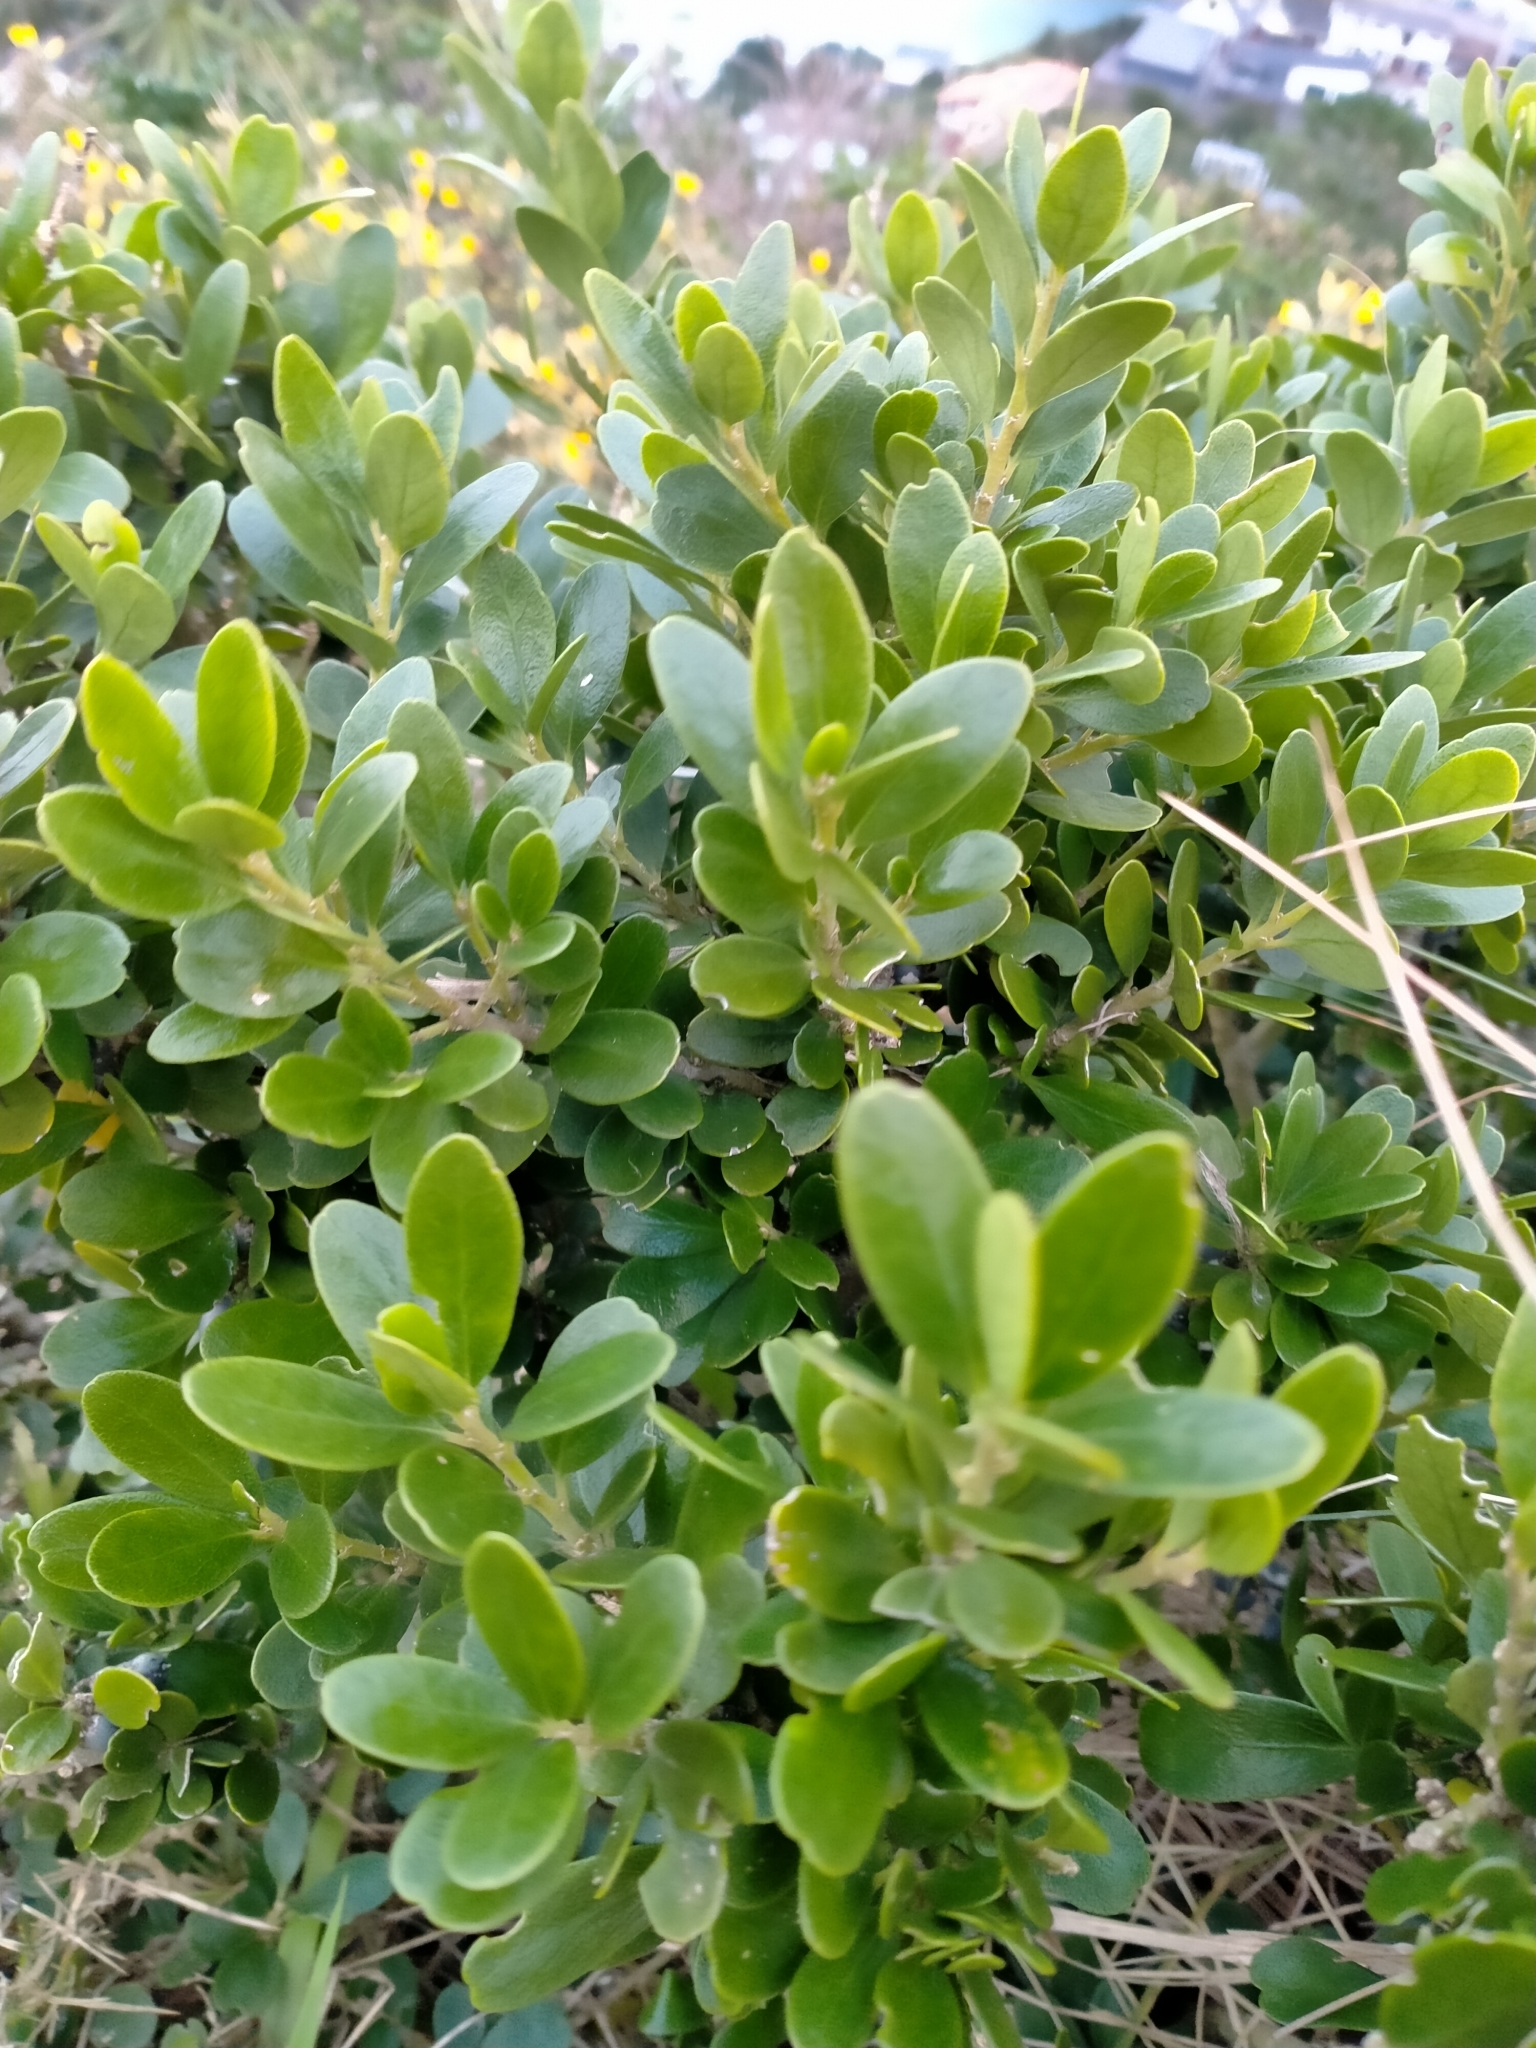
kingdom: Plantae
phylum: Tracheophyta
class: Magnoliopsida
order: Malpighiales
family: Violaceae
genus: Melicytus
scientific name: Melicytus orarius
